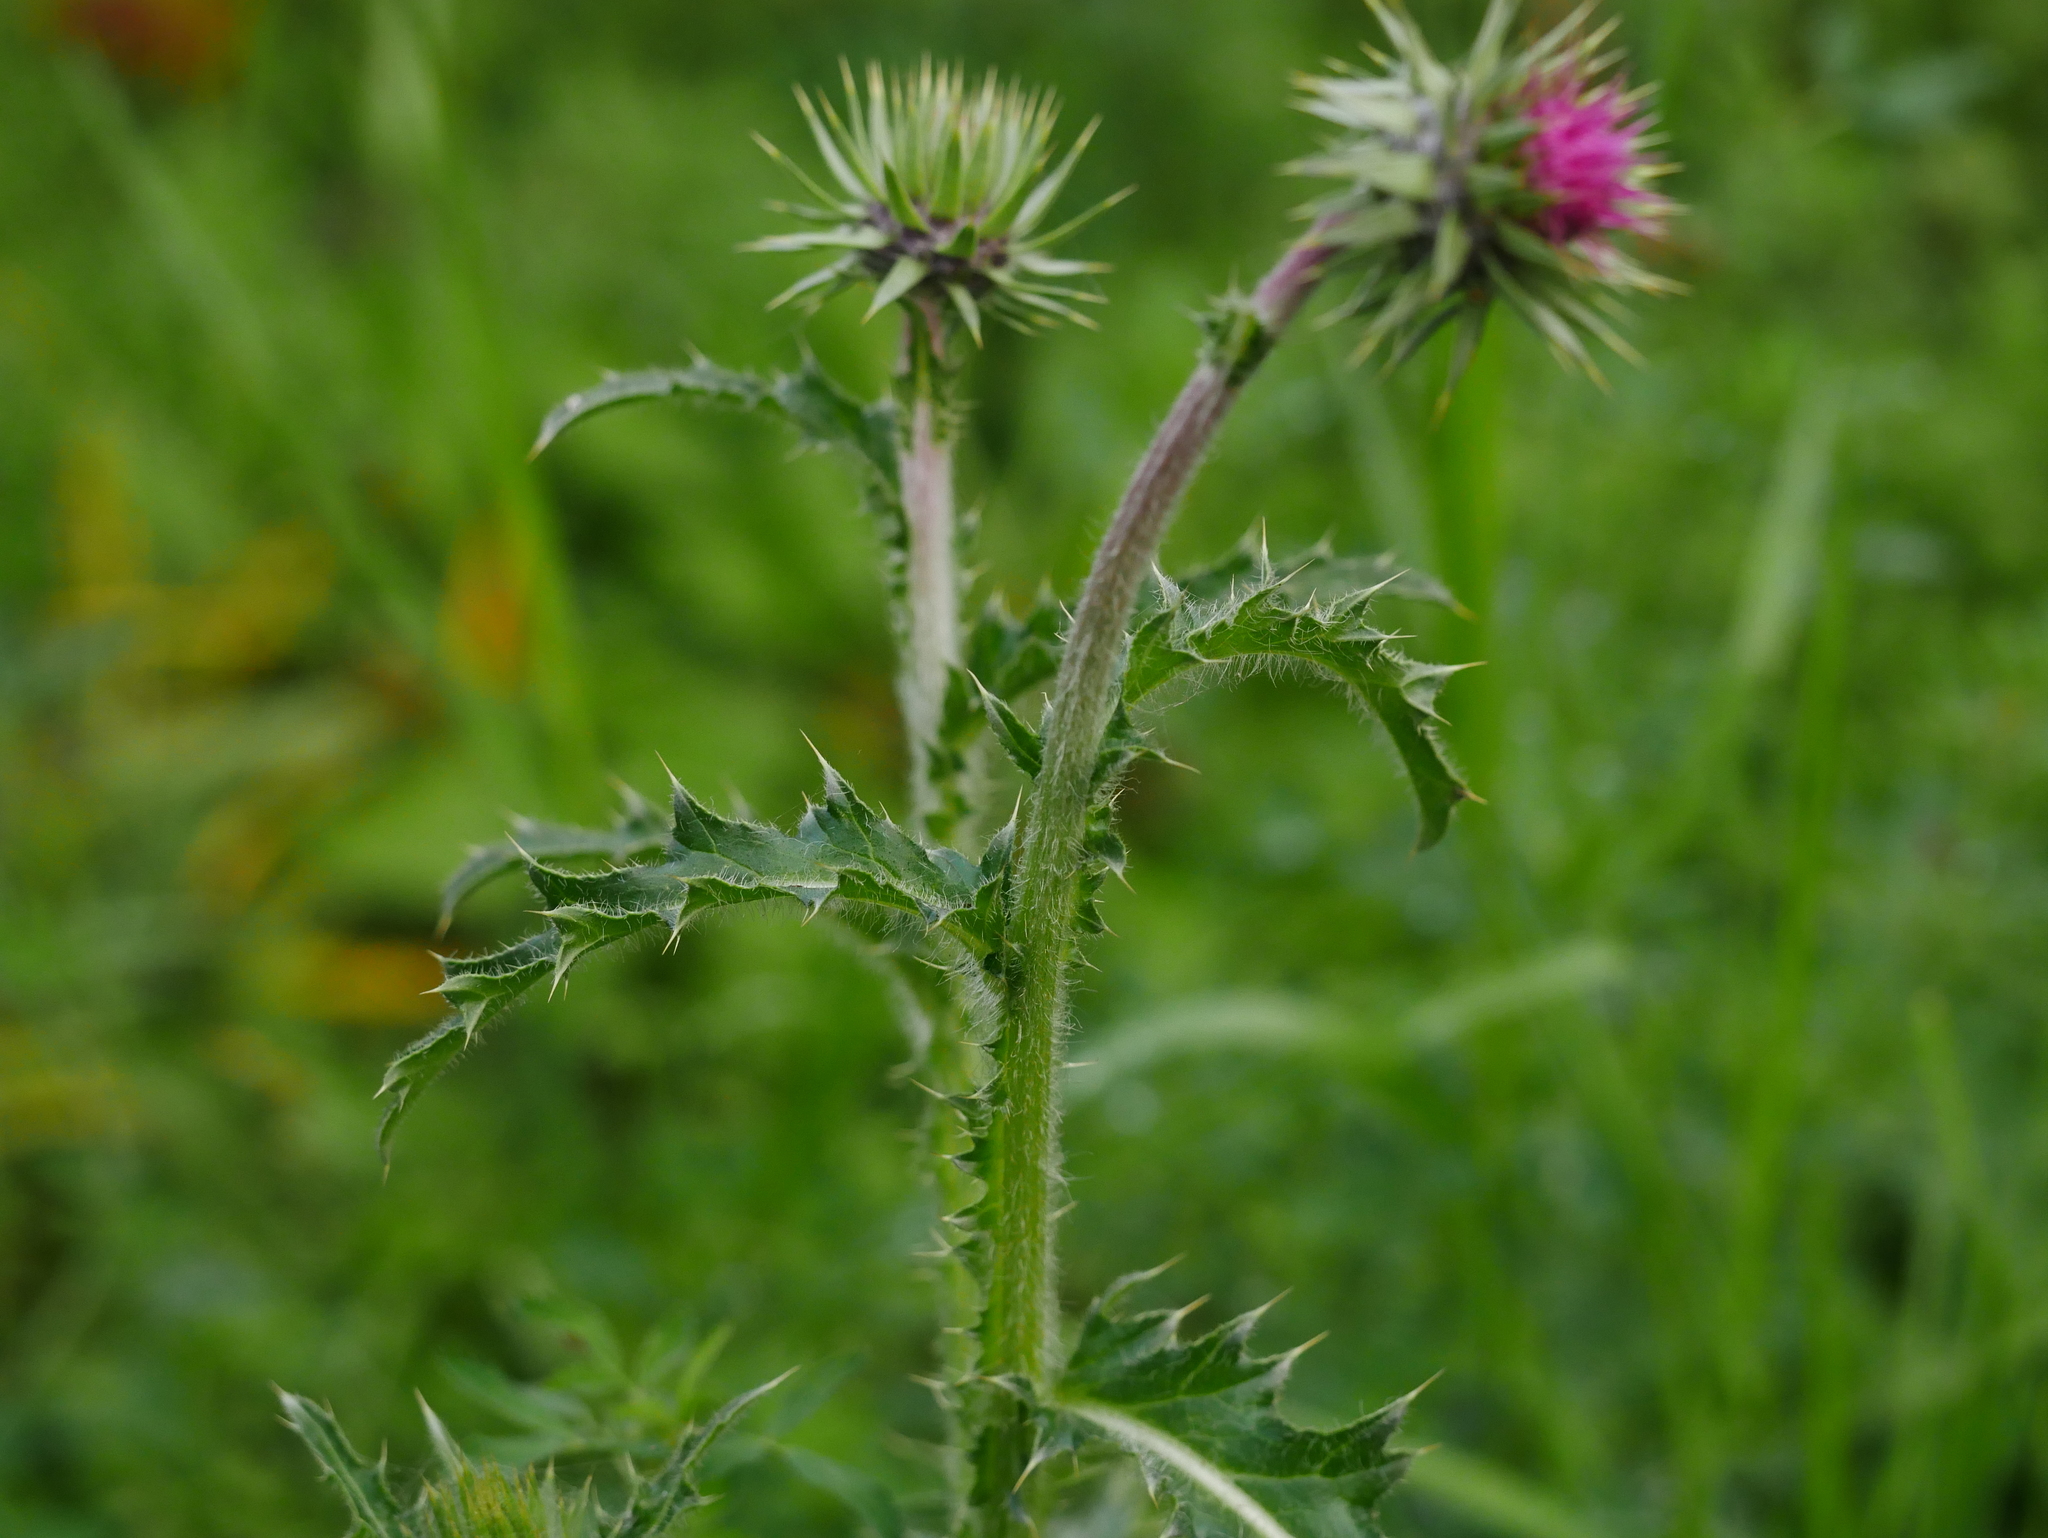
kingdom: Plantae
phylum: Tracheophyta
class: Magnoliopsida
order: Asterales
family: Asteraceae
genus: Carduus
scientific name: Carduus nutans
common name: Musk thistle
